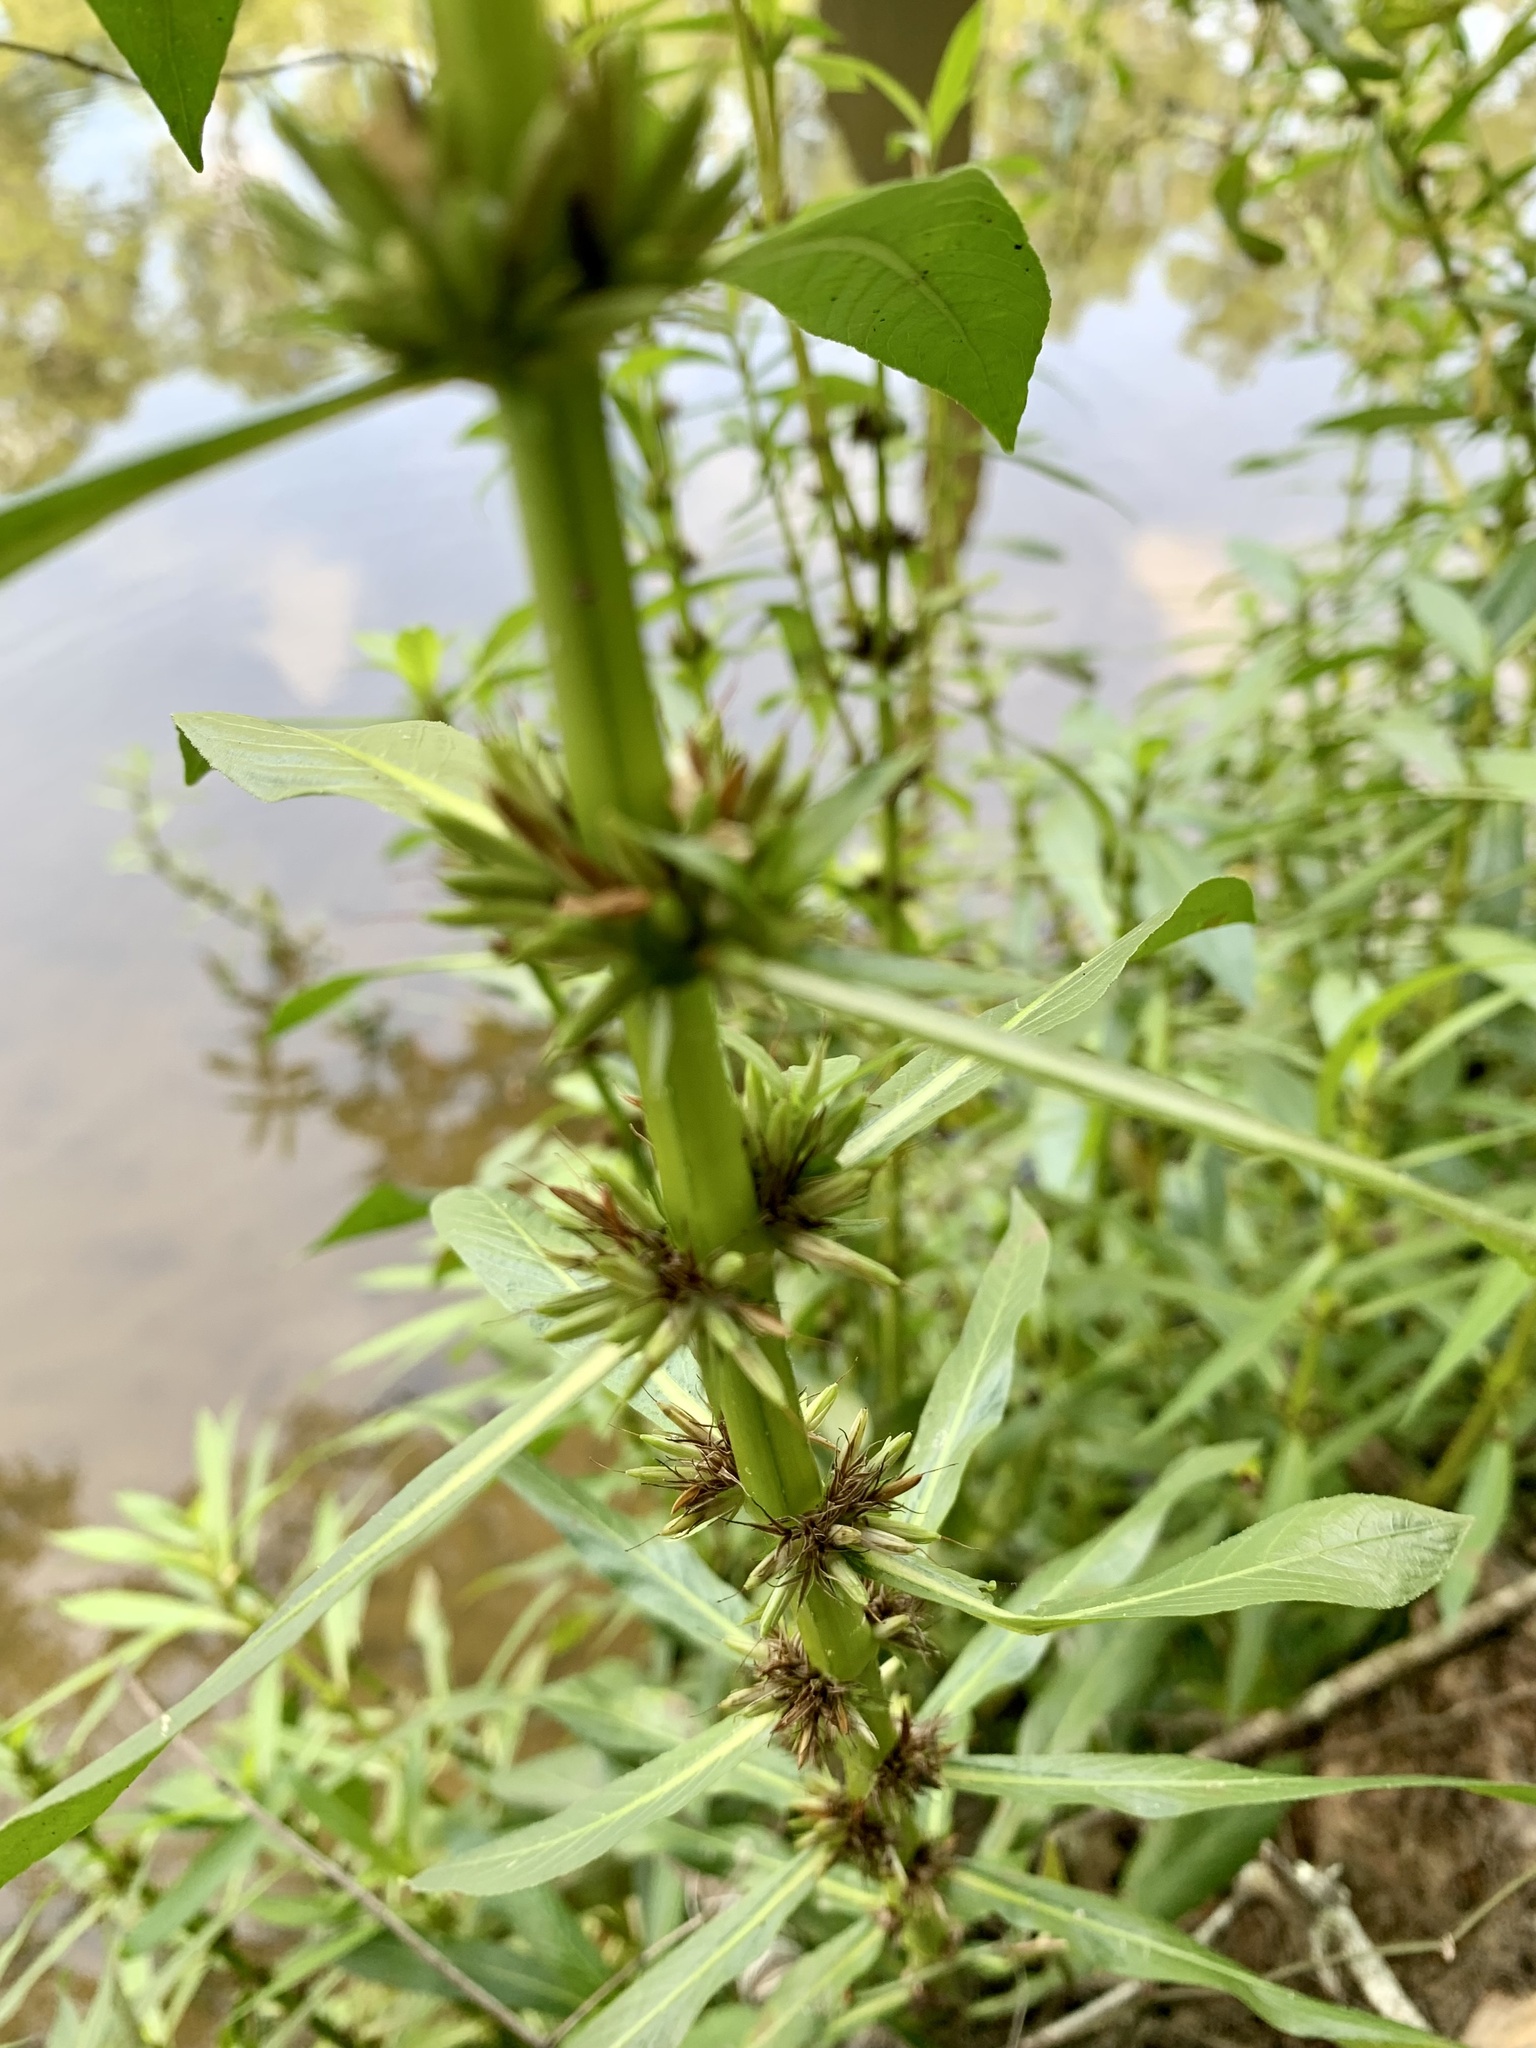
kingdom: Plantae
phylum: Tracheophyta
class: Magnoliopsida
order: Lamiales
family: Acanthaceae
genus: Hygrophila
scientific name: Hygrophila costata
